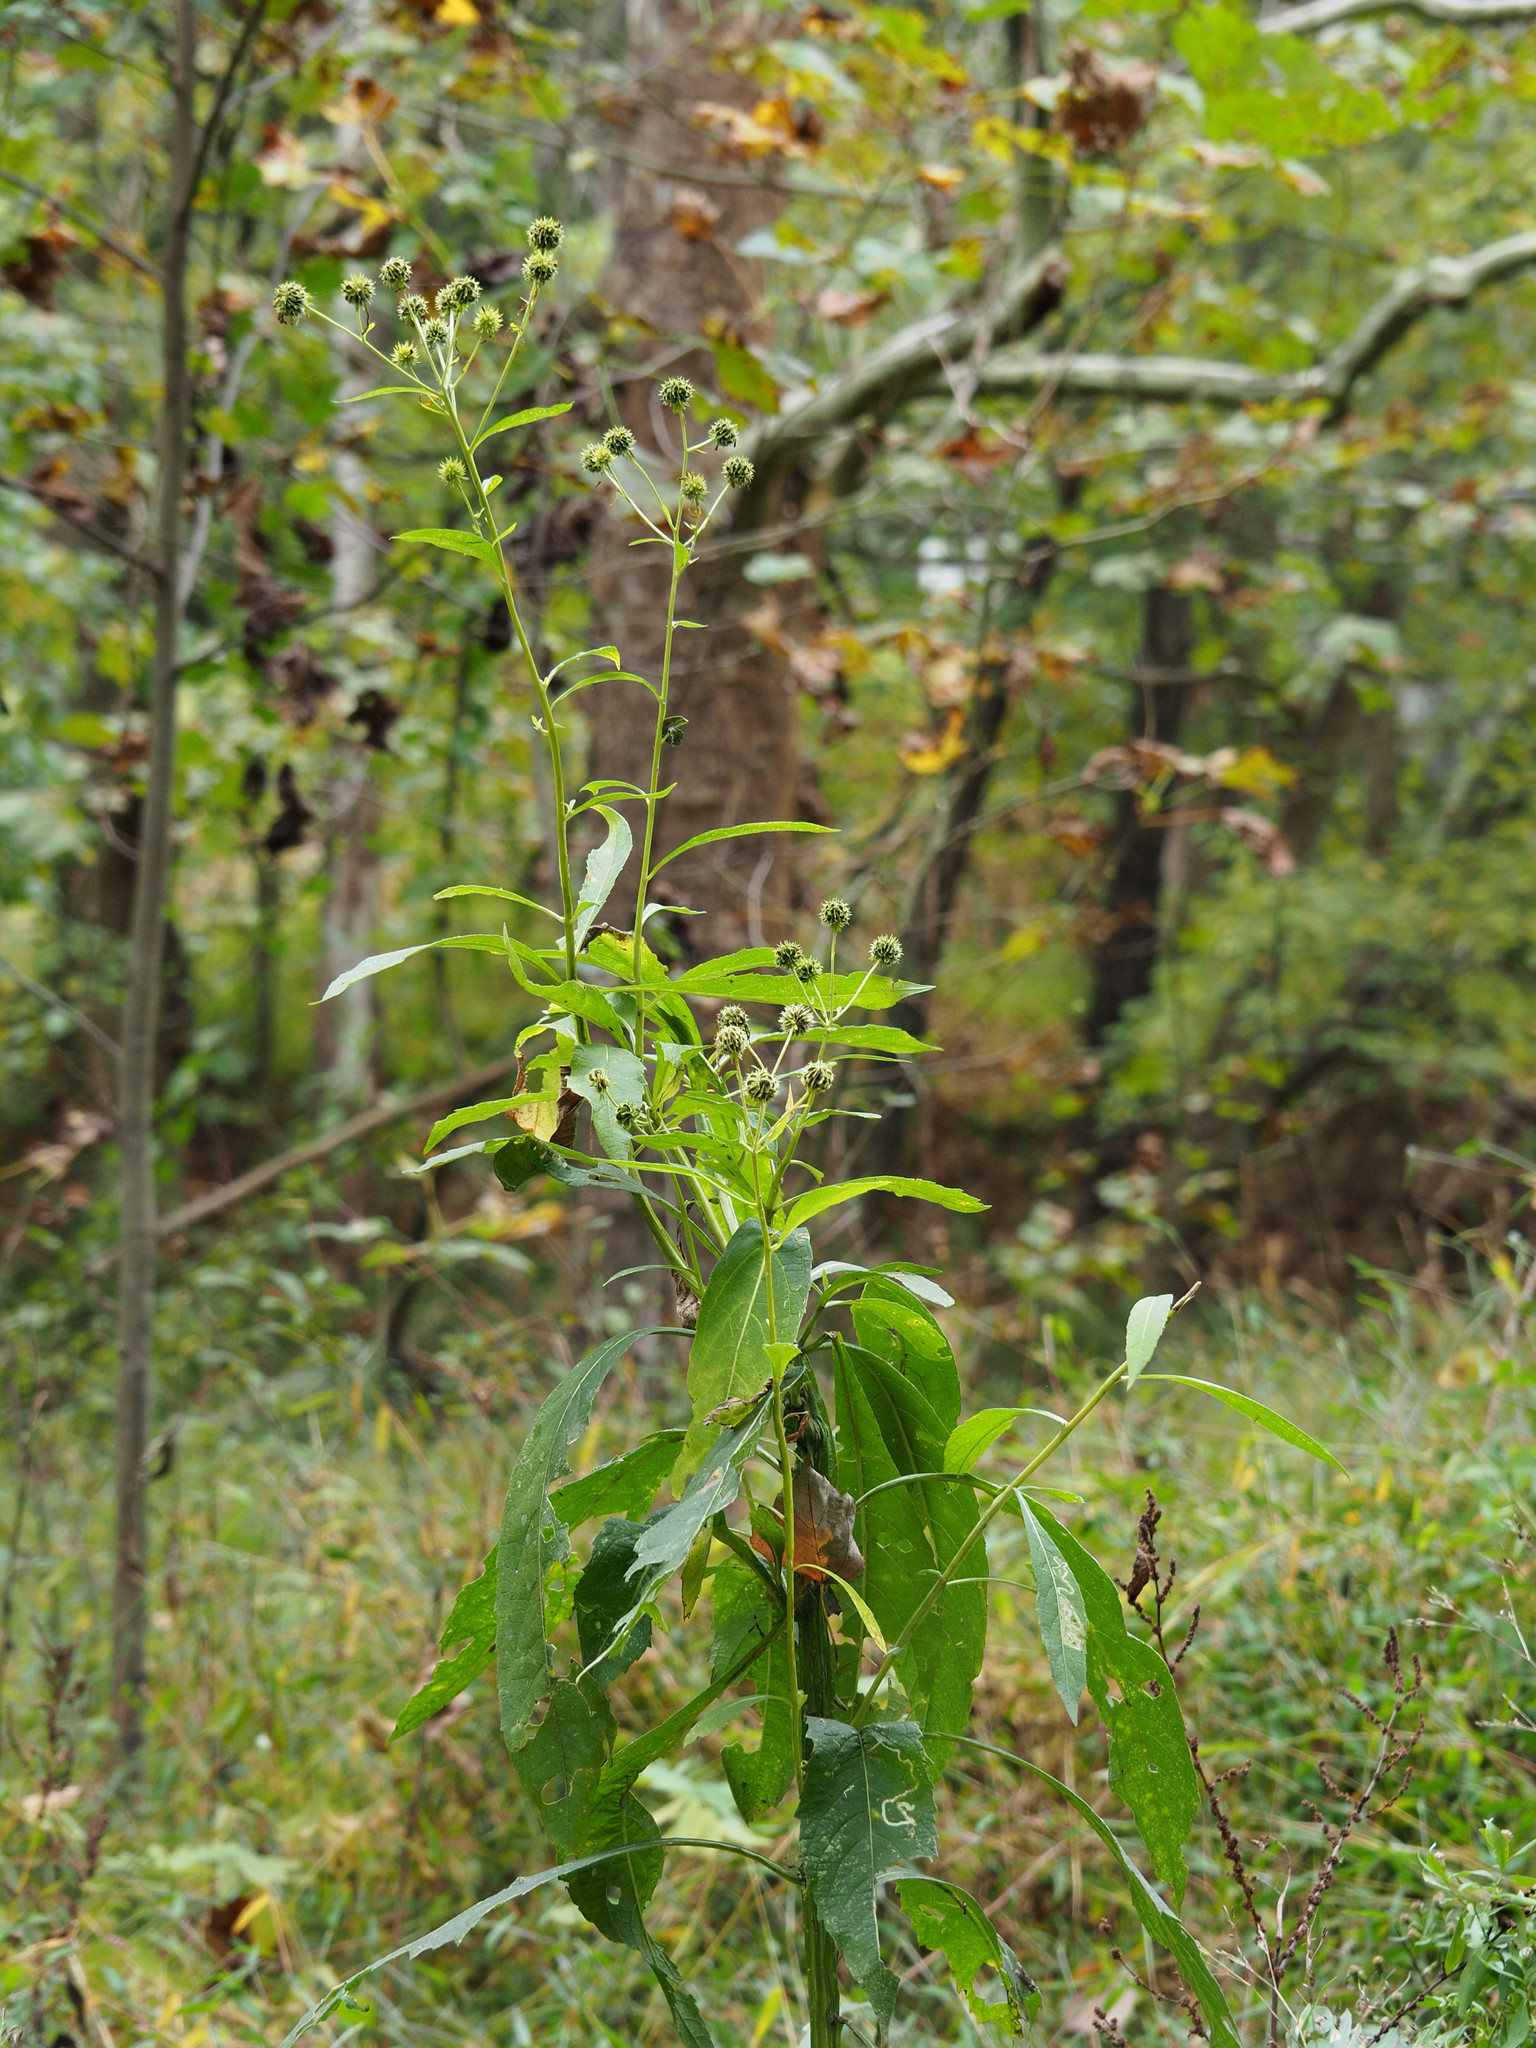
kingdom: Plantae
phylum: Tracheophyta
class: Magnoliopsida
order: Asterales
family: Asteraceae
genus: Verbesina
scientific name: Verbesina alternifolia
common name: Wingstem
